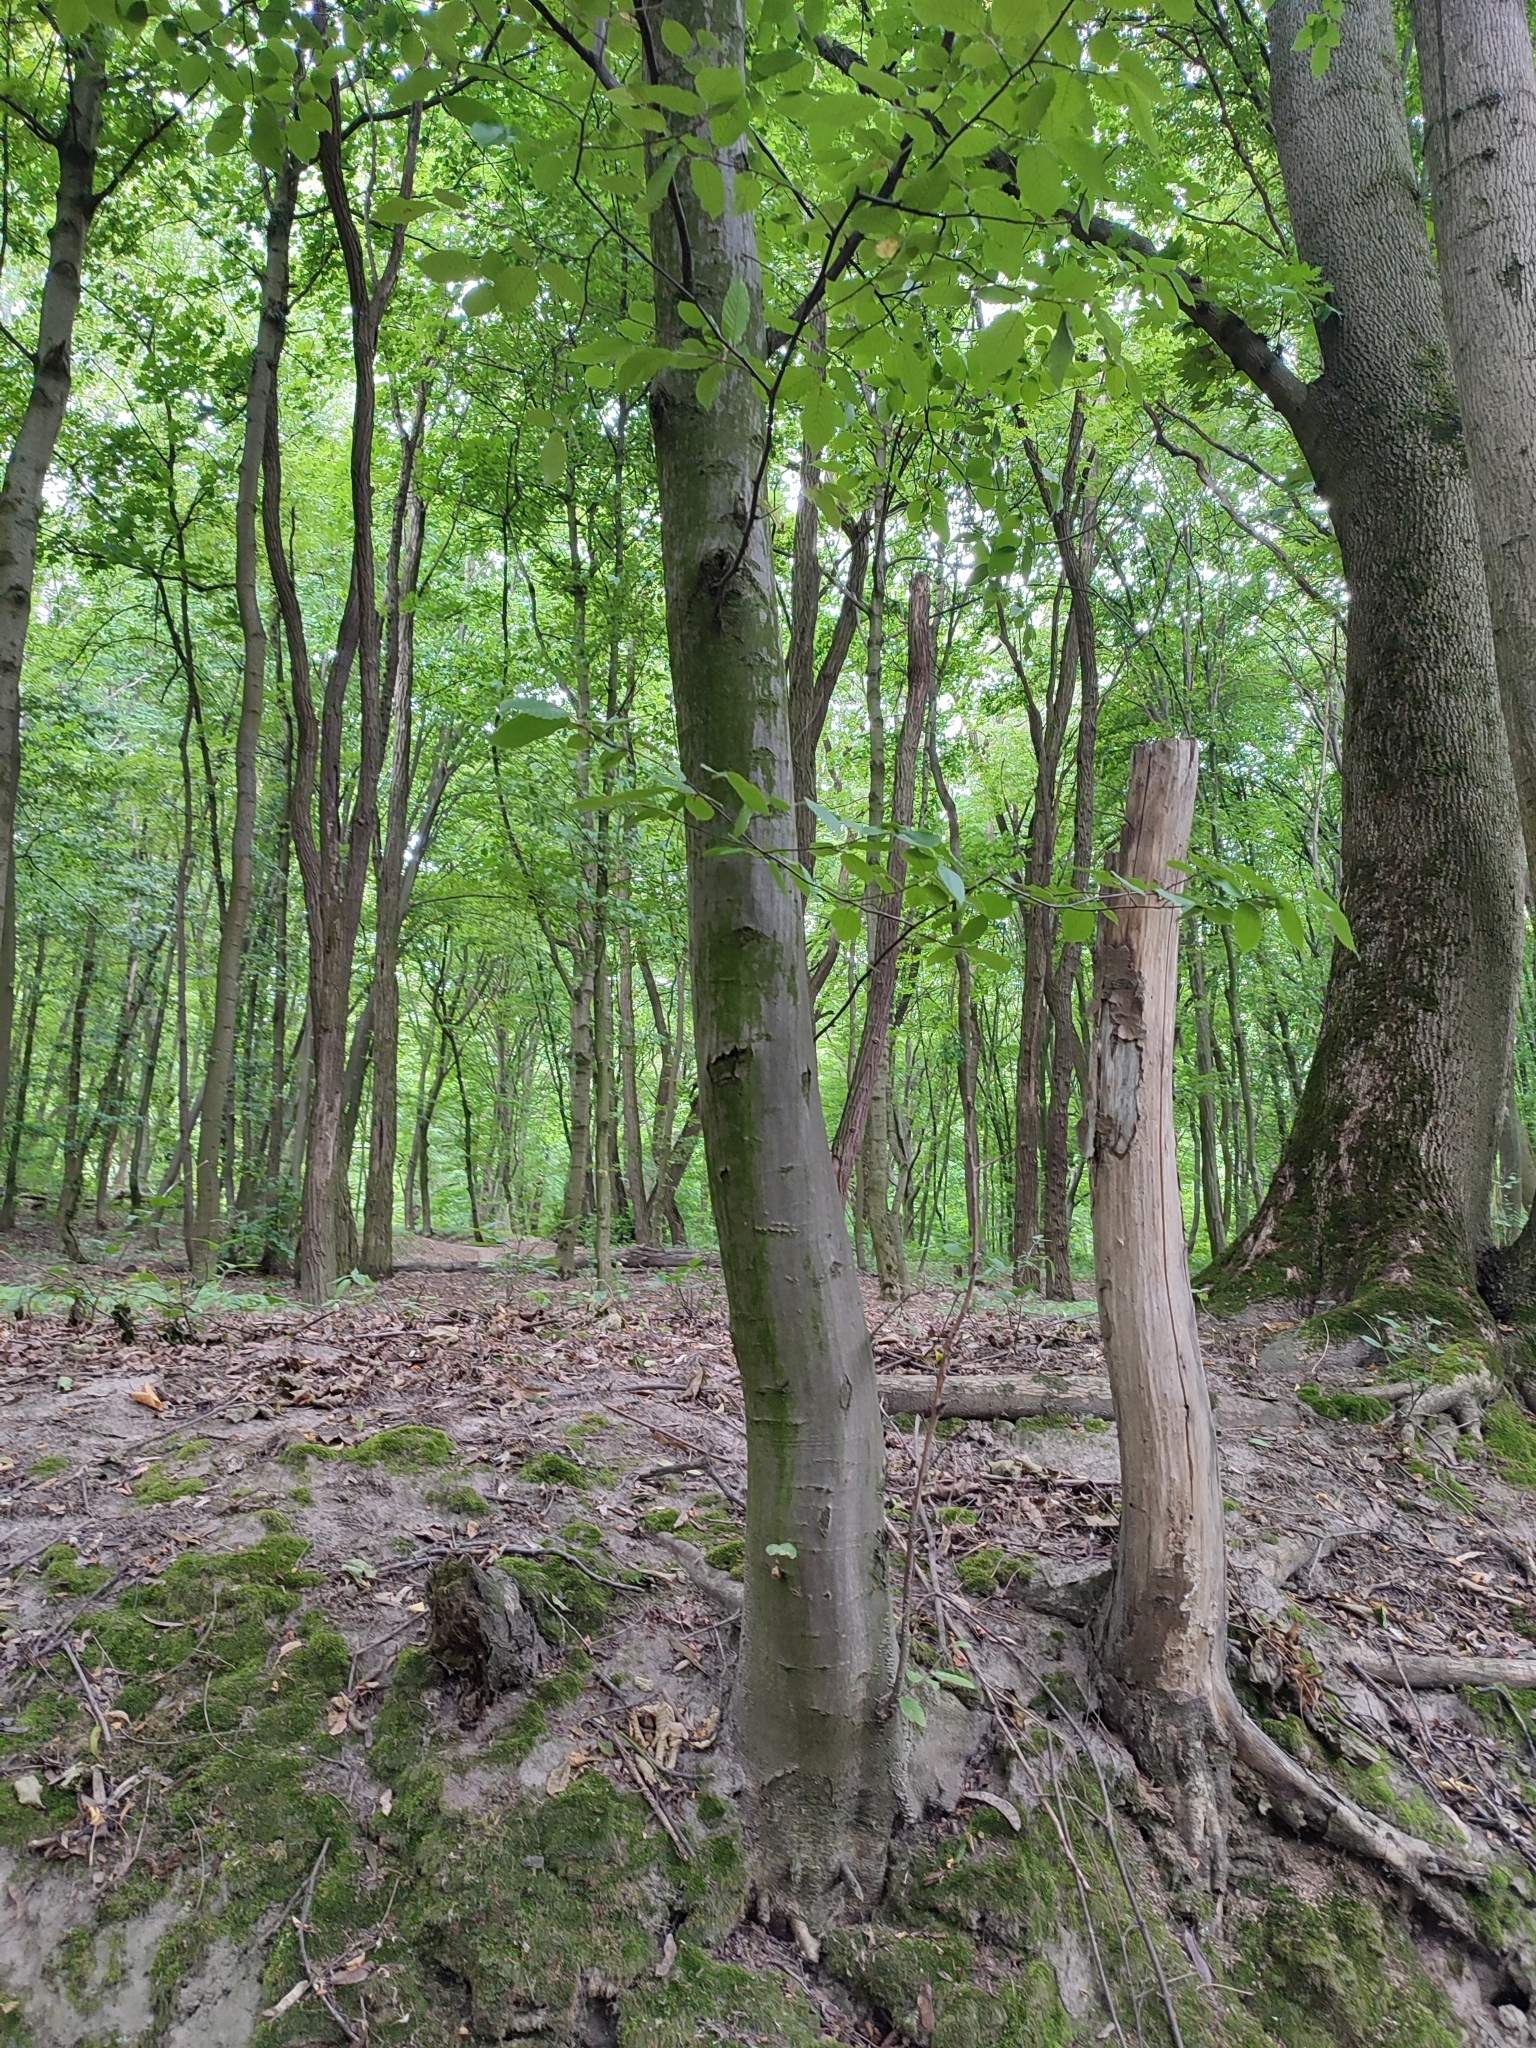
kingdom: Plantae
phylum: Tracheophyta
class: Magnoliopsida
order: Fagales
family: Betulaceae
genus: Carpinus
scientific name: Carpinus betulus
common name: Hornbeam
